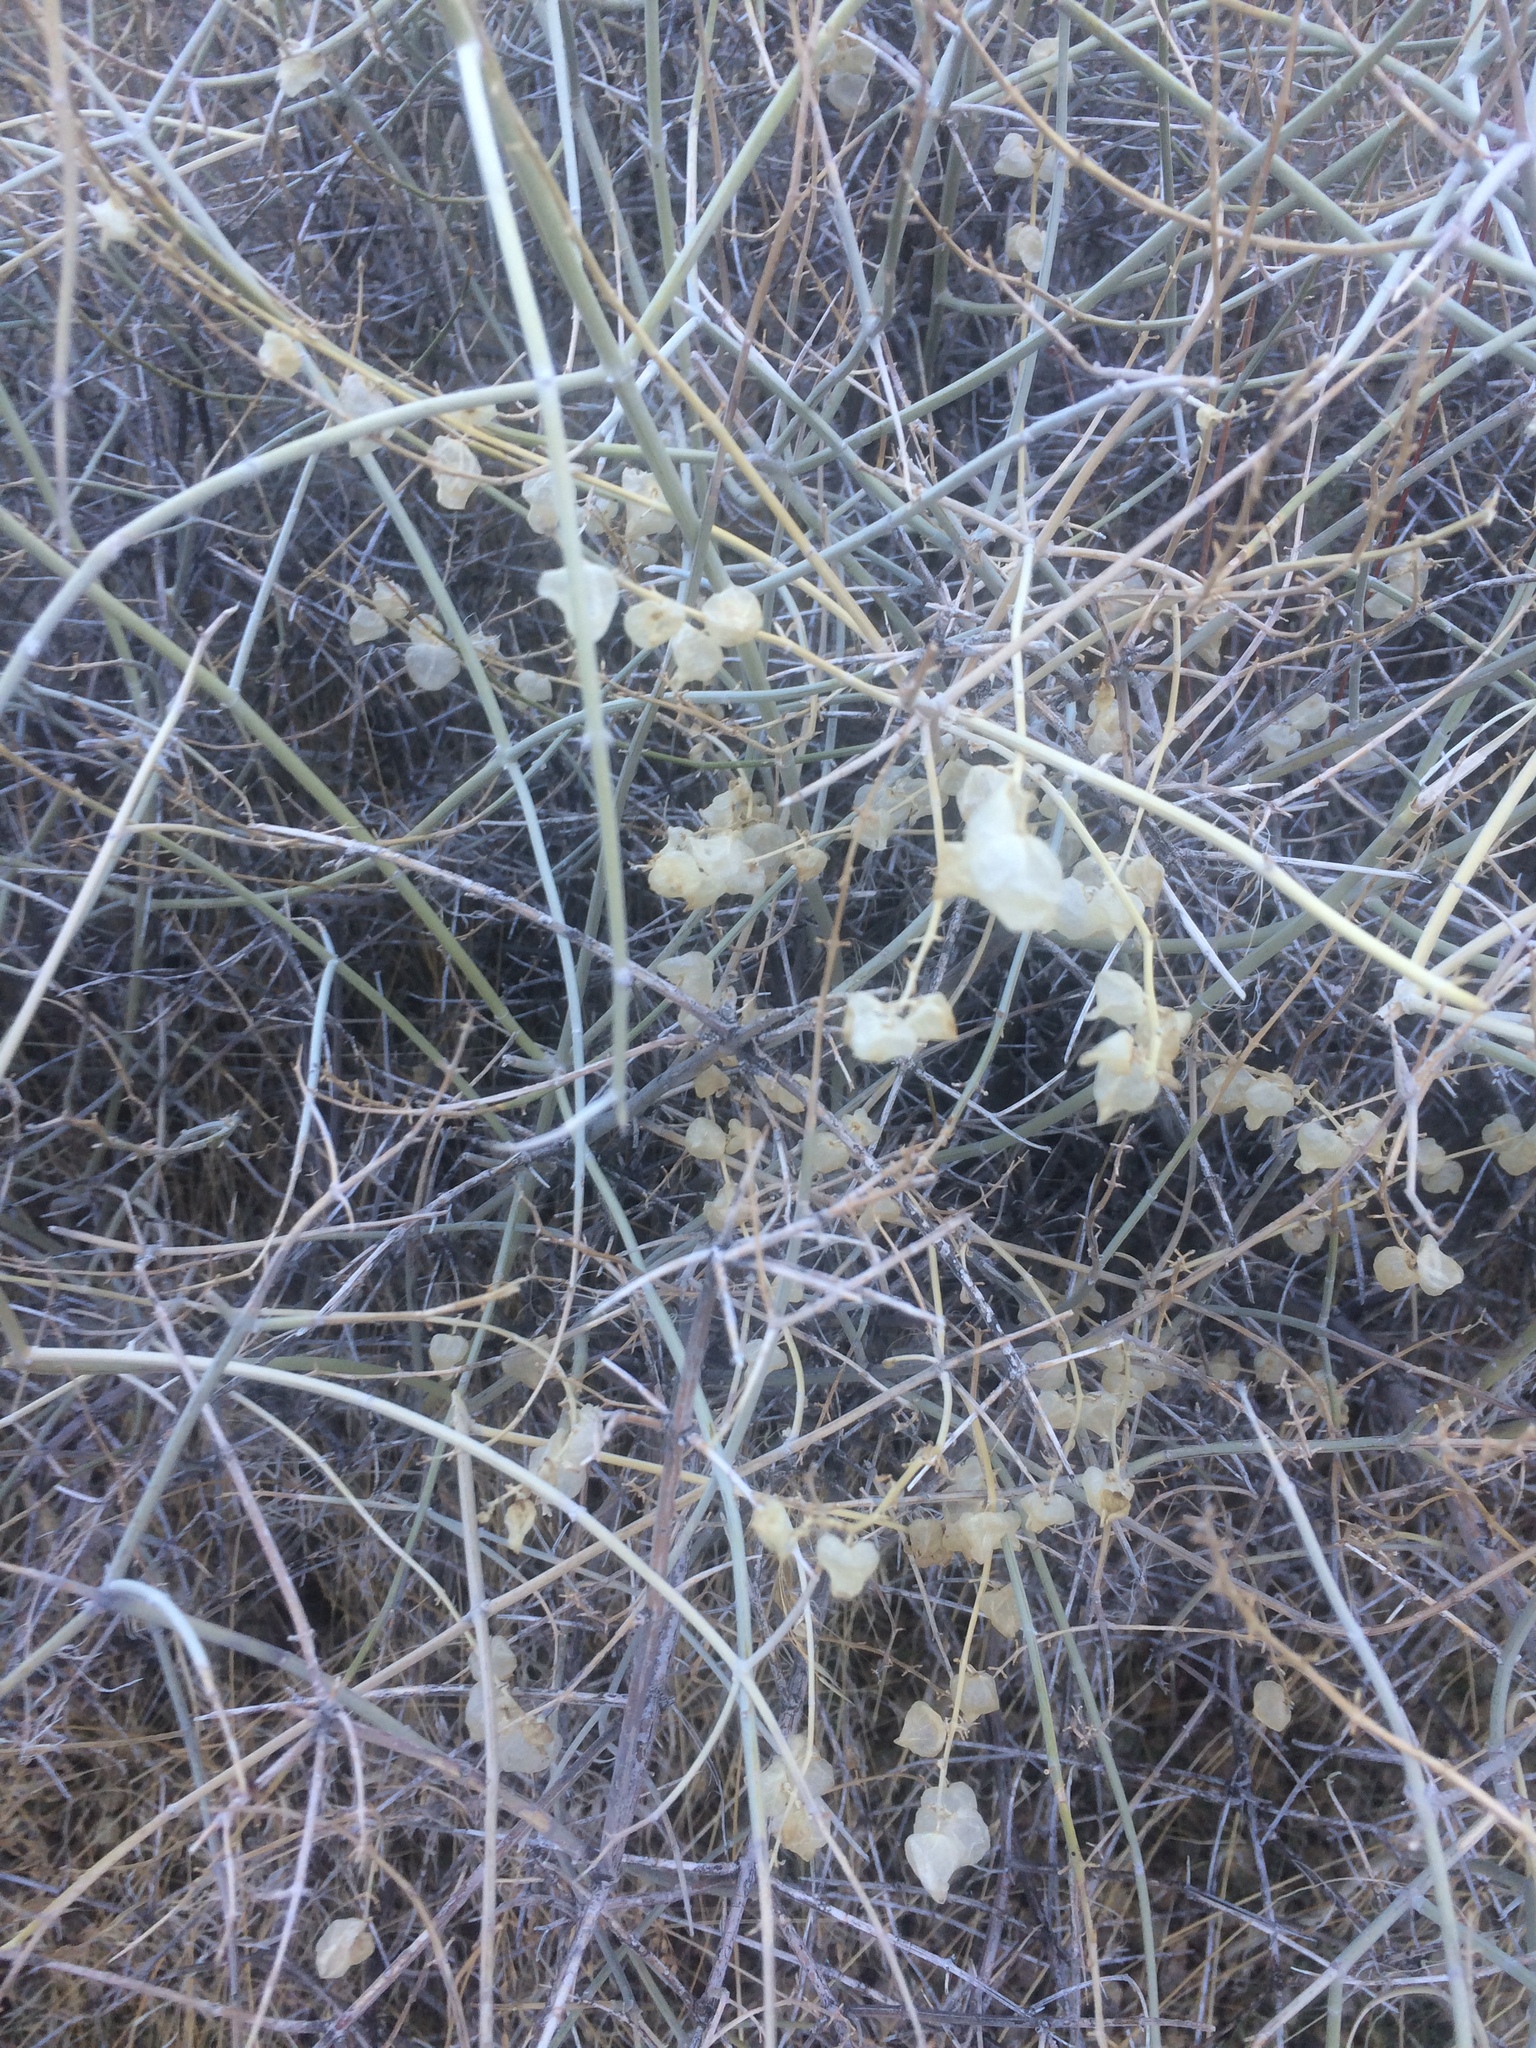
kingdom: Plantae
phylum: Tracheophyta
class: Magnoliopsida
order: Lamiales
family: Lamiaceae
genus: Scutellaria
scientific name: Scutellaria mexicana
